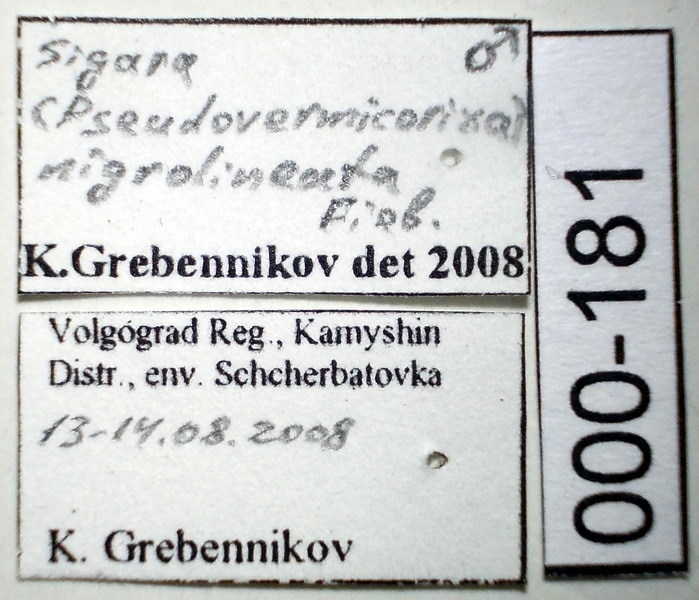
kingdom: Animalia
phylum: Arthropoda
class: Insecta
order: Hemiptera
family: Corixidae
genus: Sigara
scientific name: Sigara nigrolineata
